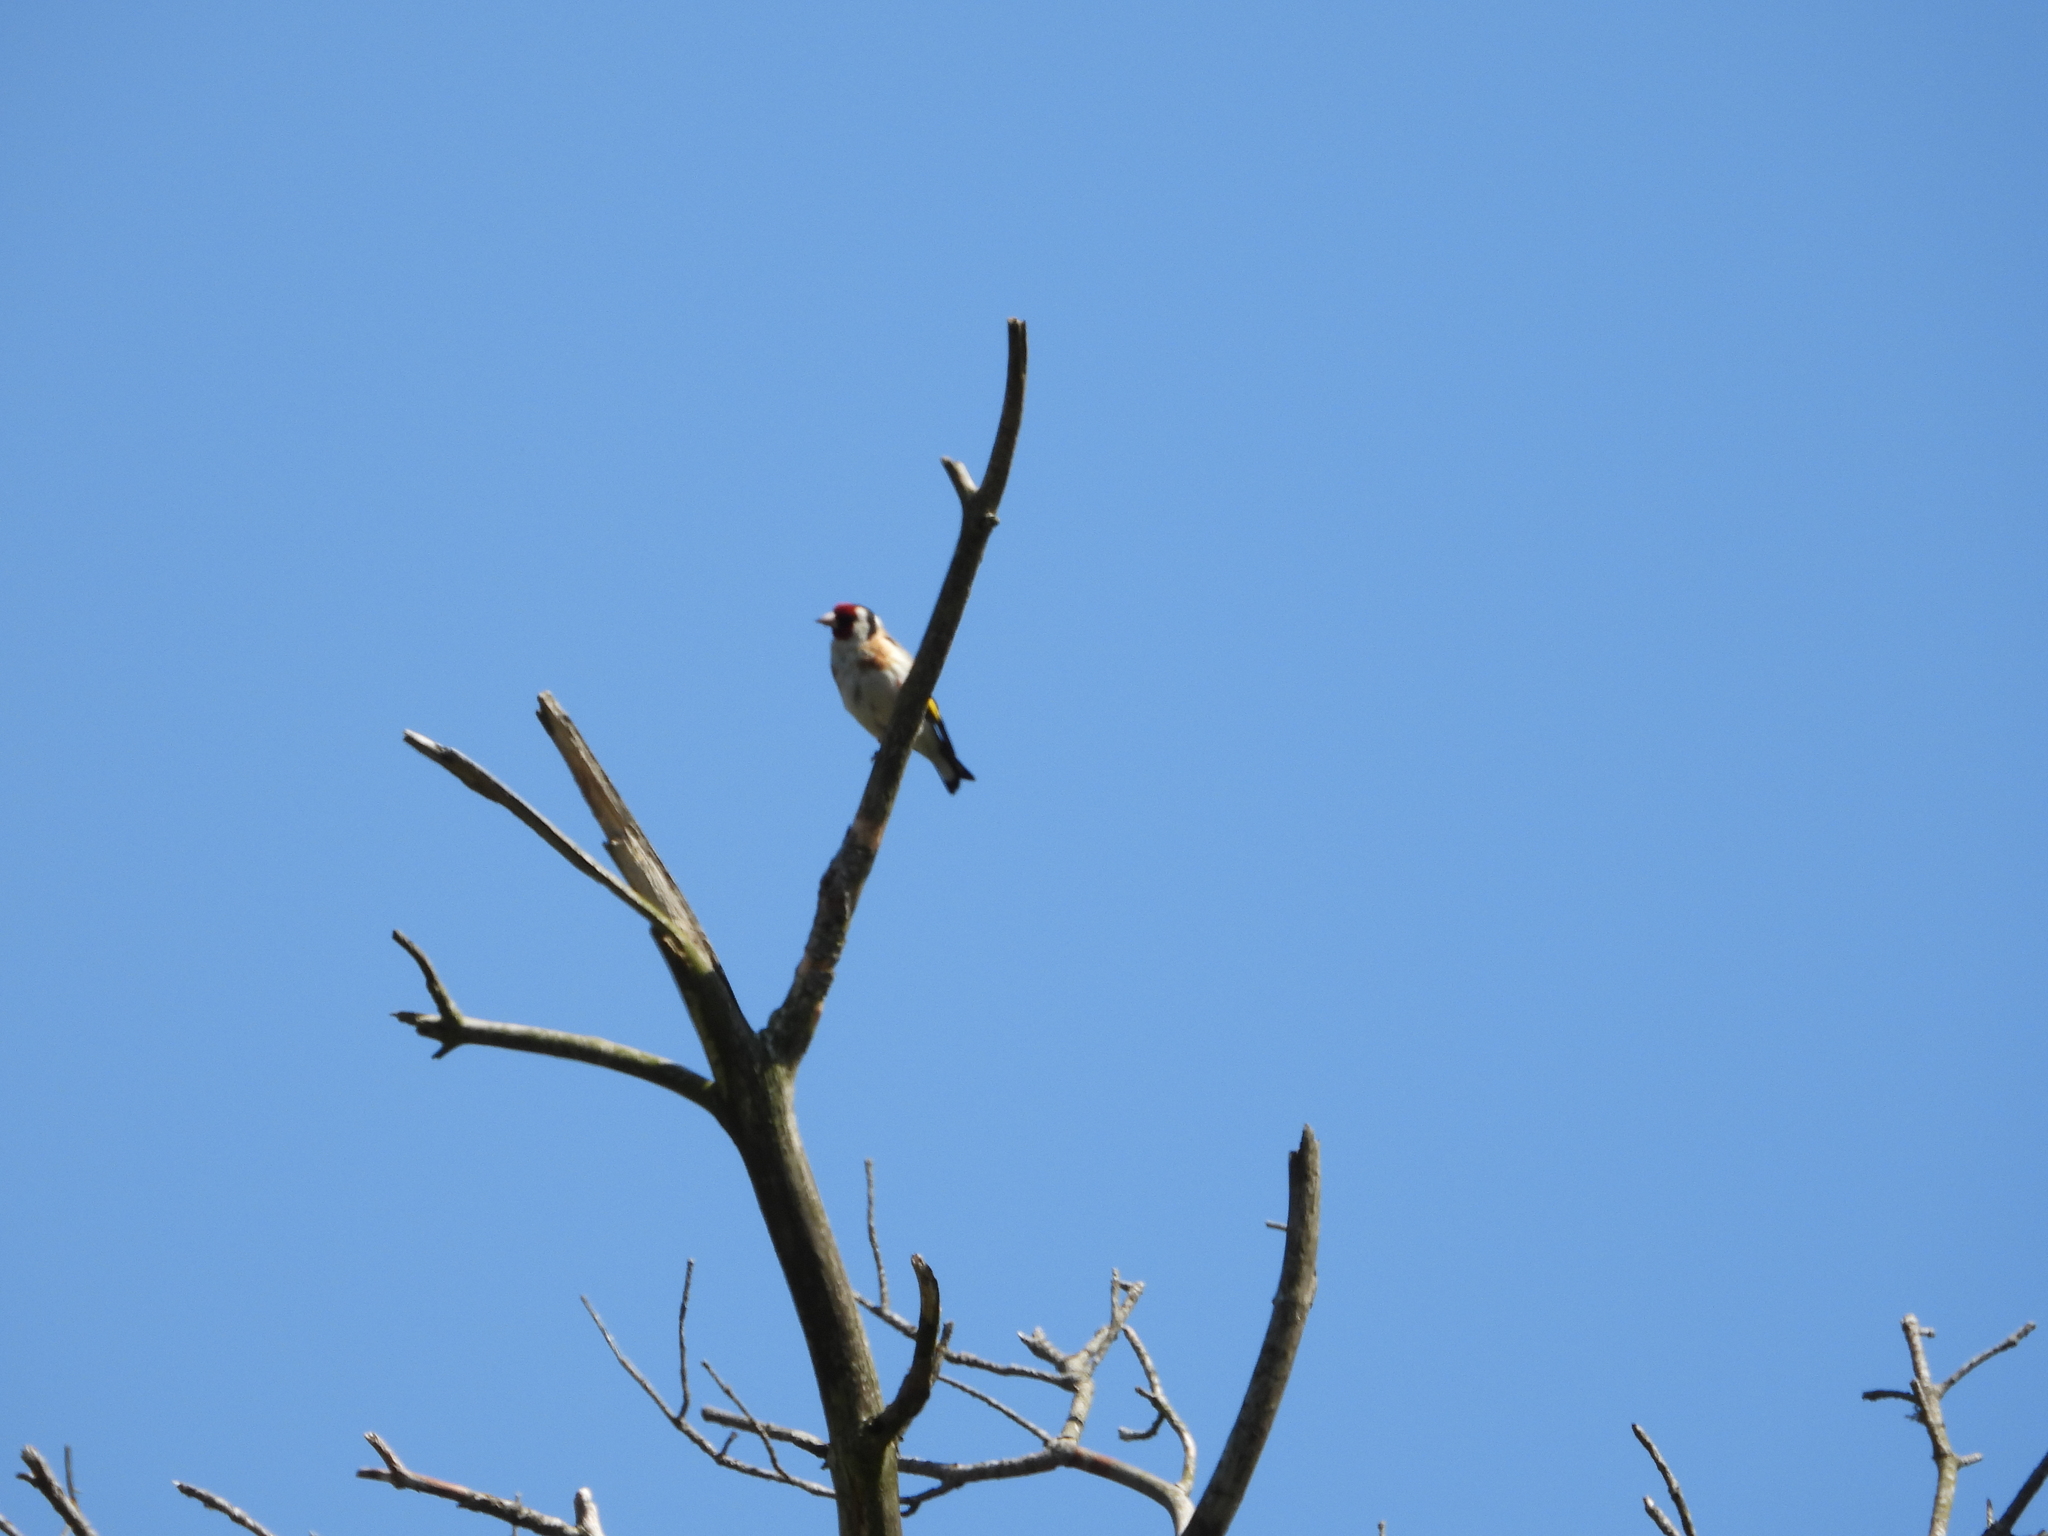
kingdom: Animalia
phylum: Chordata
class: Aves
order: Passeriformes
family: Fringillidae
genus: Carduelis
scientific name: Carduelis carduelis
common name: European goldfinch
